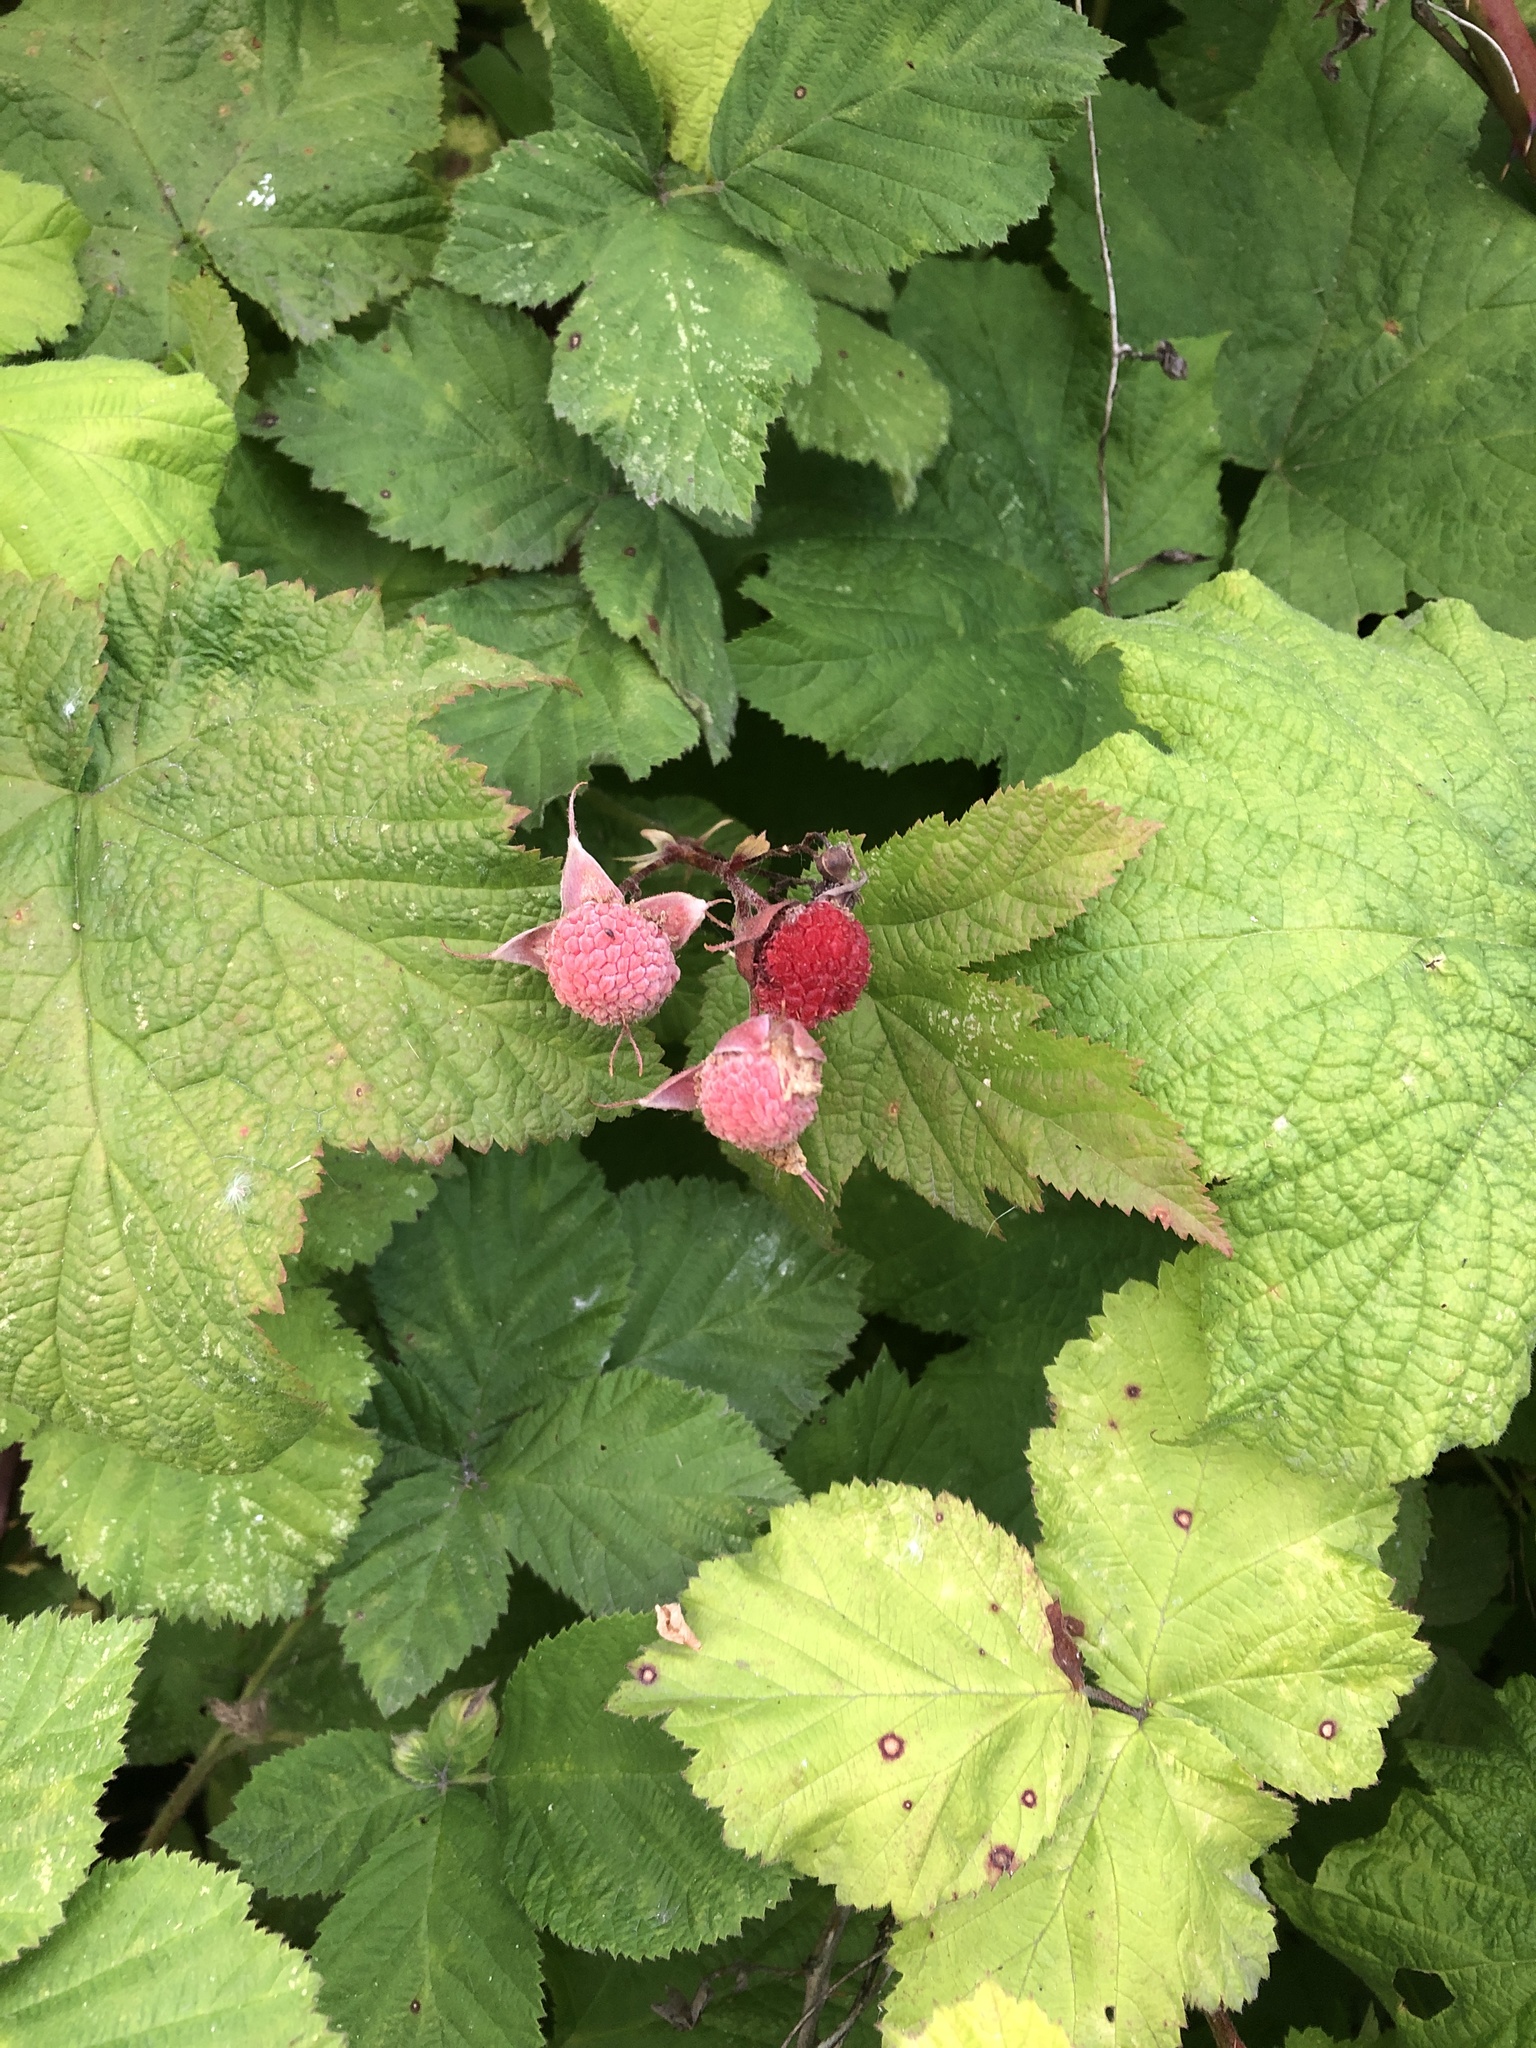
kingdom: Plantae
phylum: Tracheophyta
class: Magnoliopsida
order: Rosales
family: Rosaceae
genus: Rubus
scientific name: Rubus parviflorus
